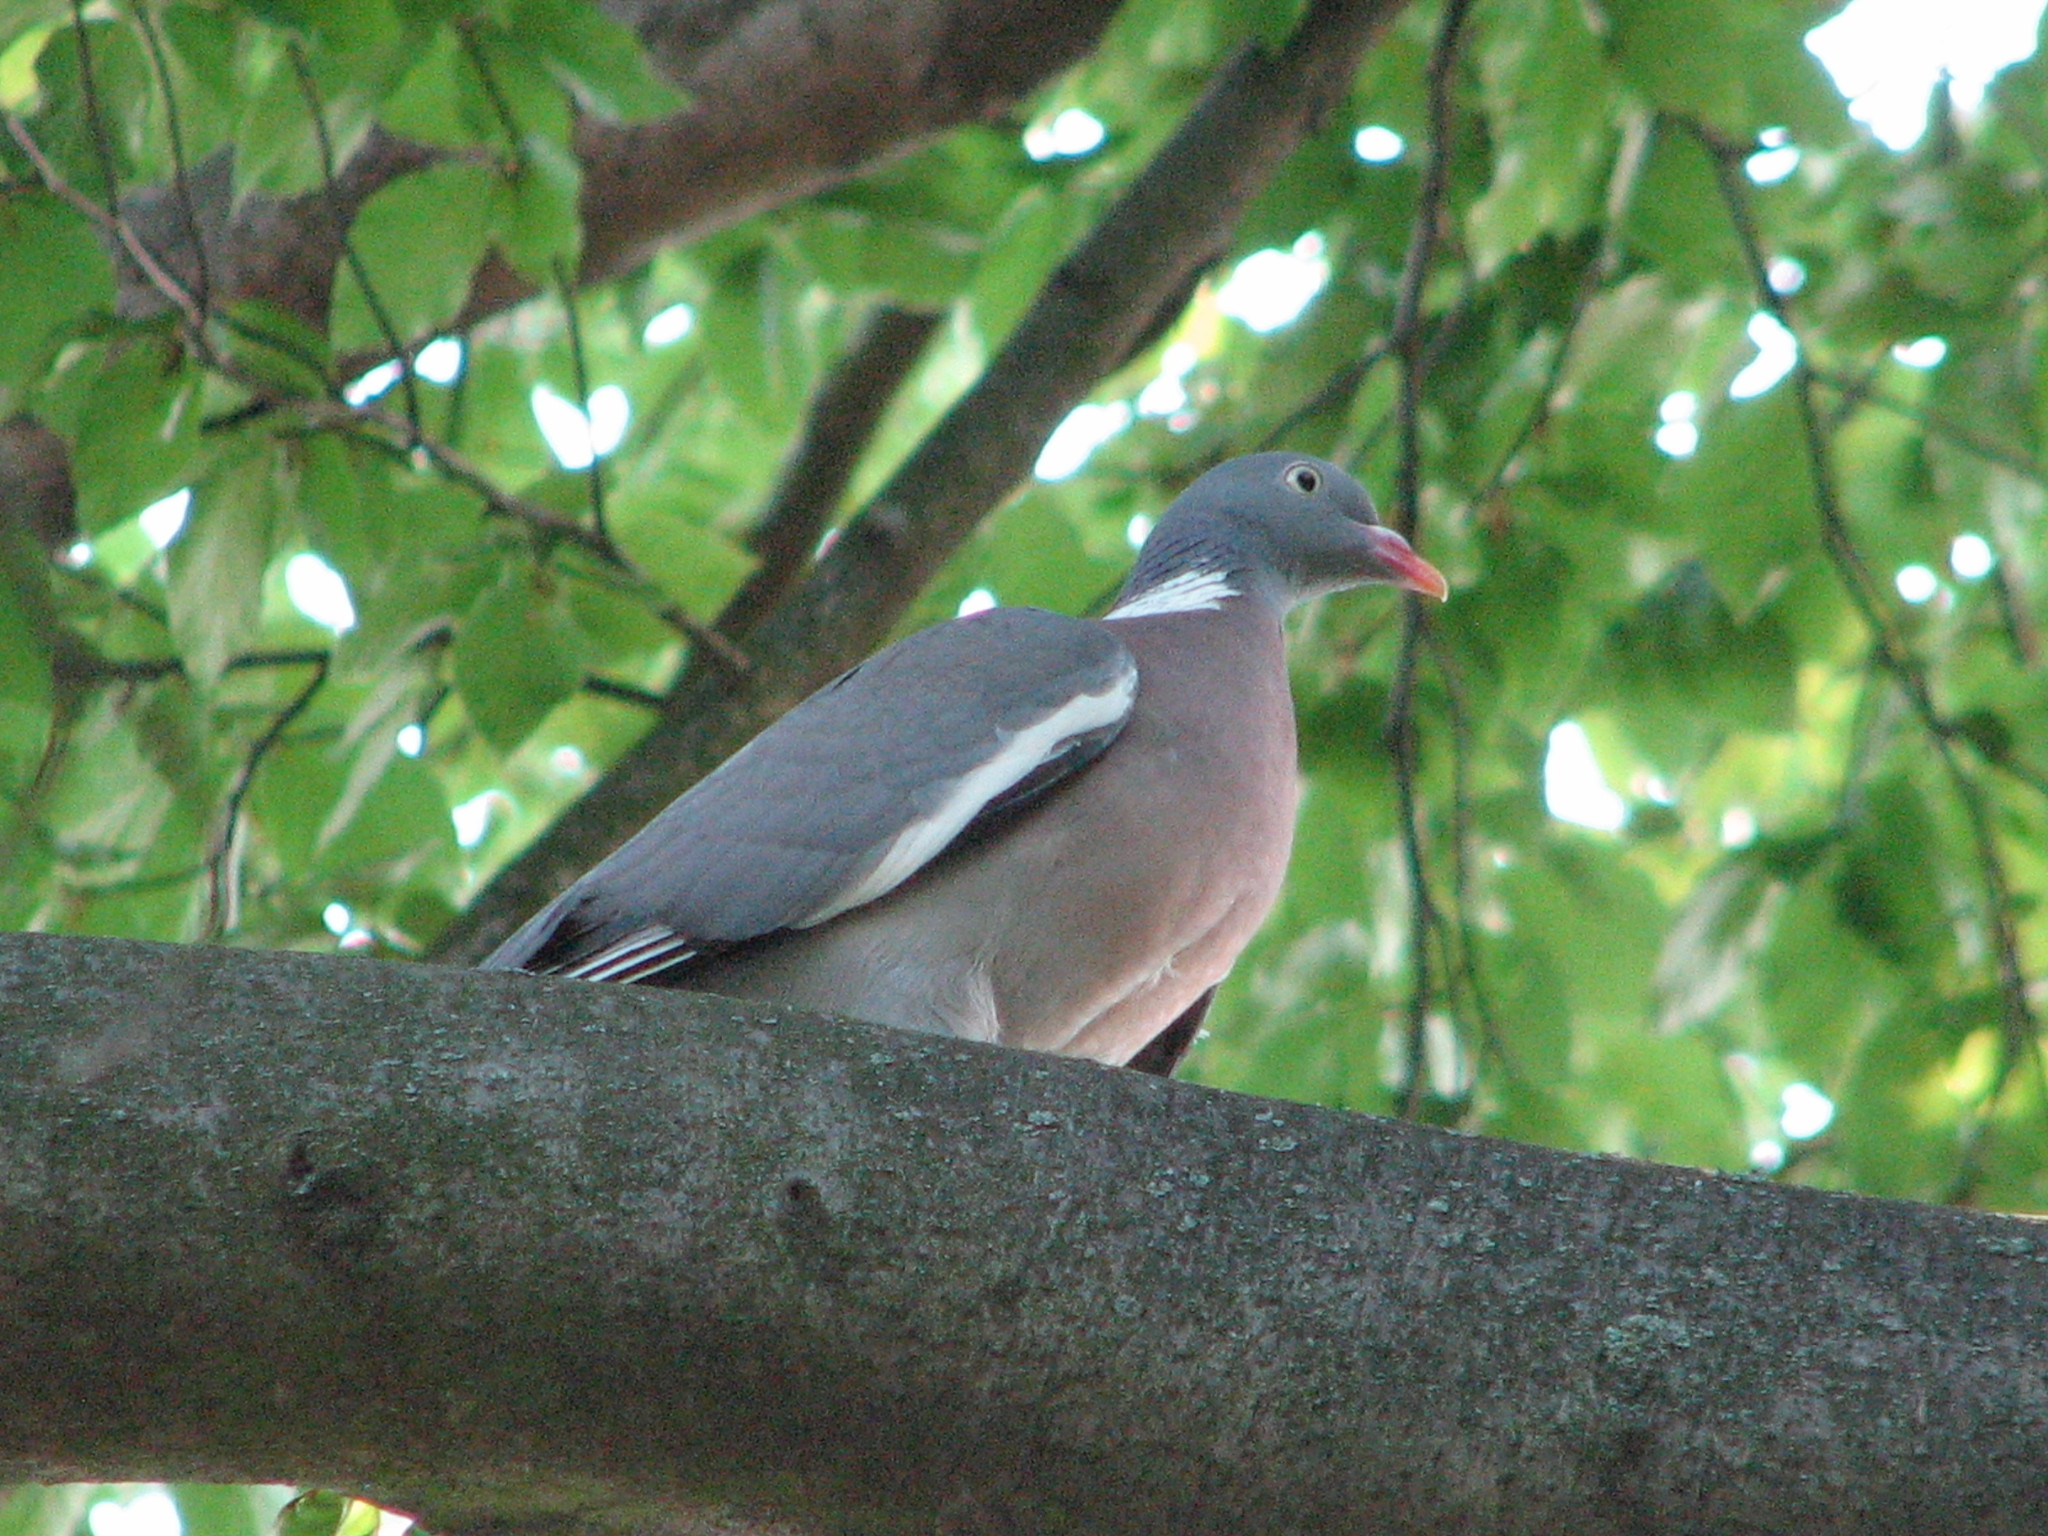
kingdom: Animalia
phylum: Chordata
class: Aves
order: Columbiformes
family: Columbidae
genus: Columba
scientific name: Columba palumbus
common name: Common wood pigeon
